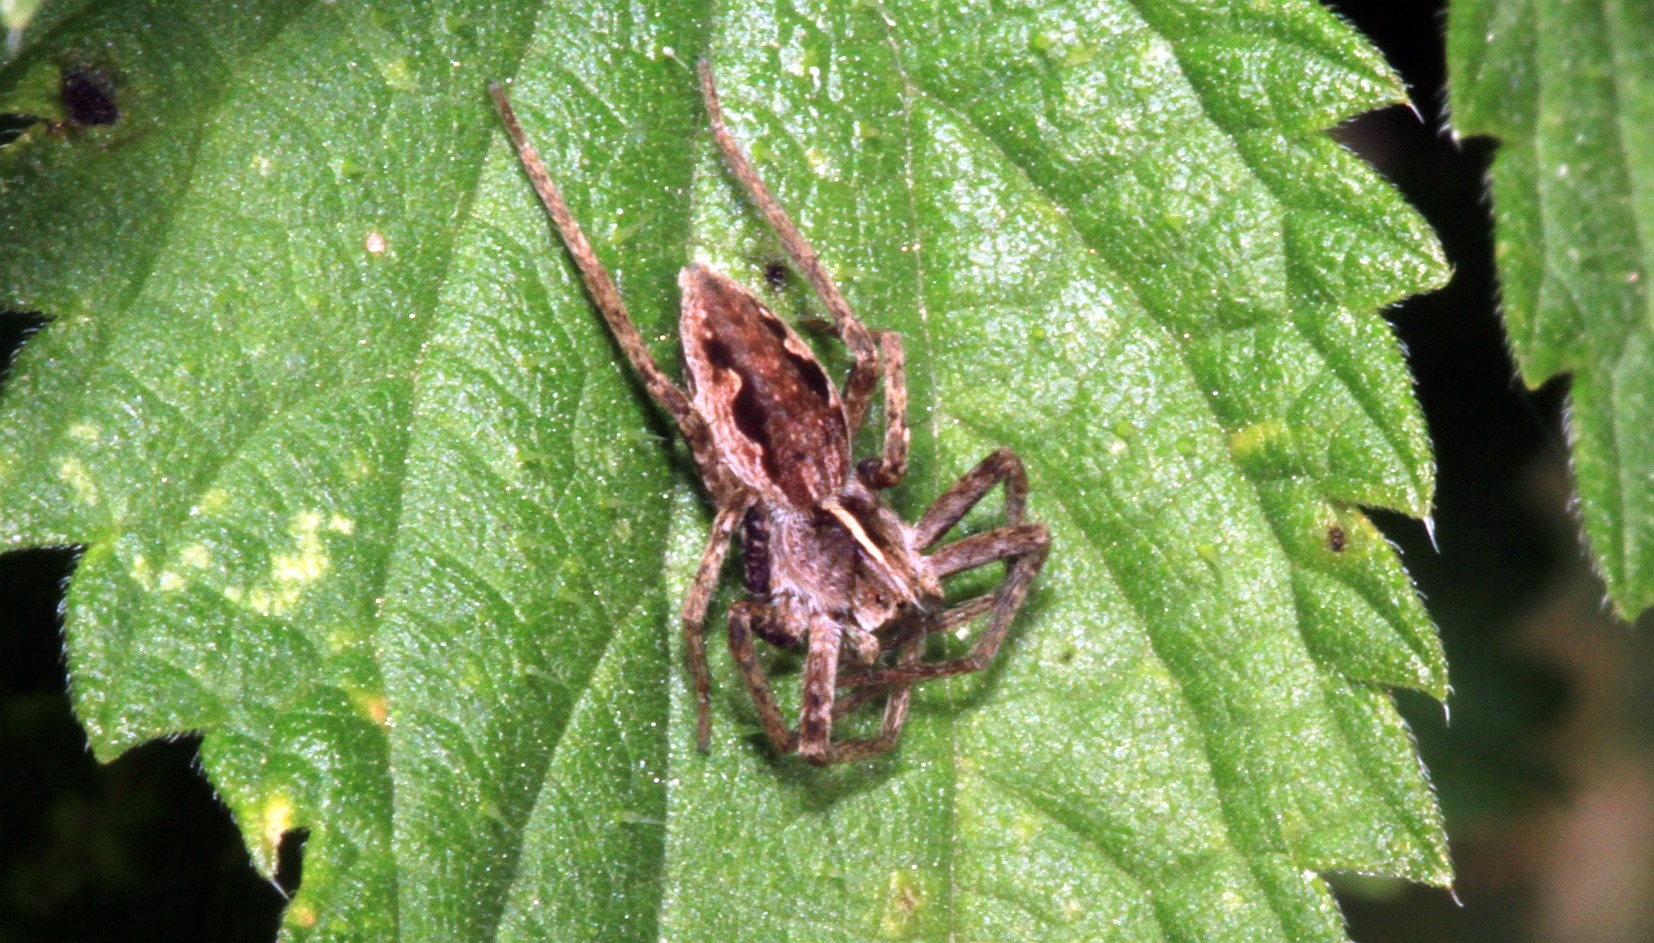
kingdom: Animalia
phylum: Arthropoda
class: Arachnida
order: Araneae
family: Pisauridae
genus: Pisaura
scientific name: Pisaura mirabilis
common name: Tent spider
